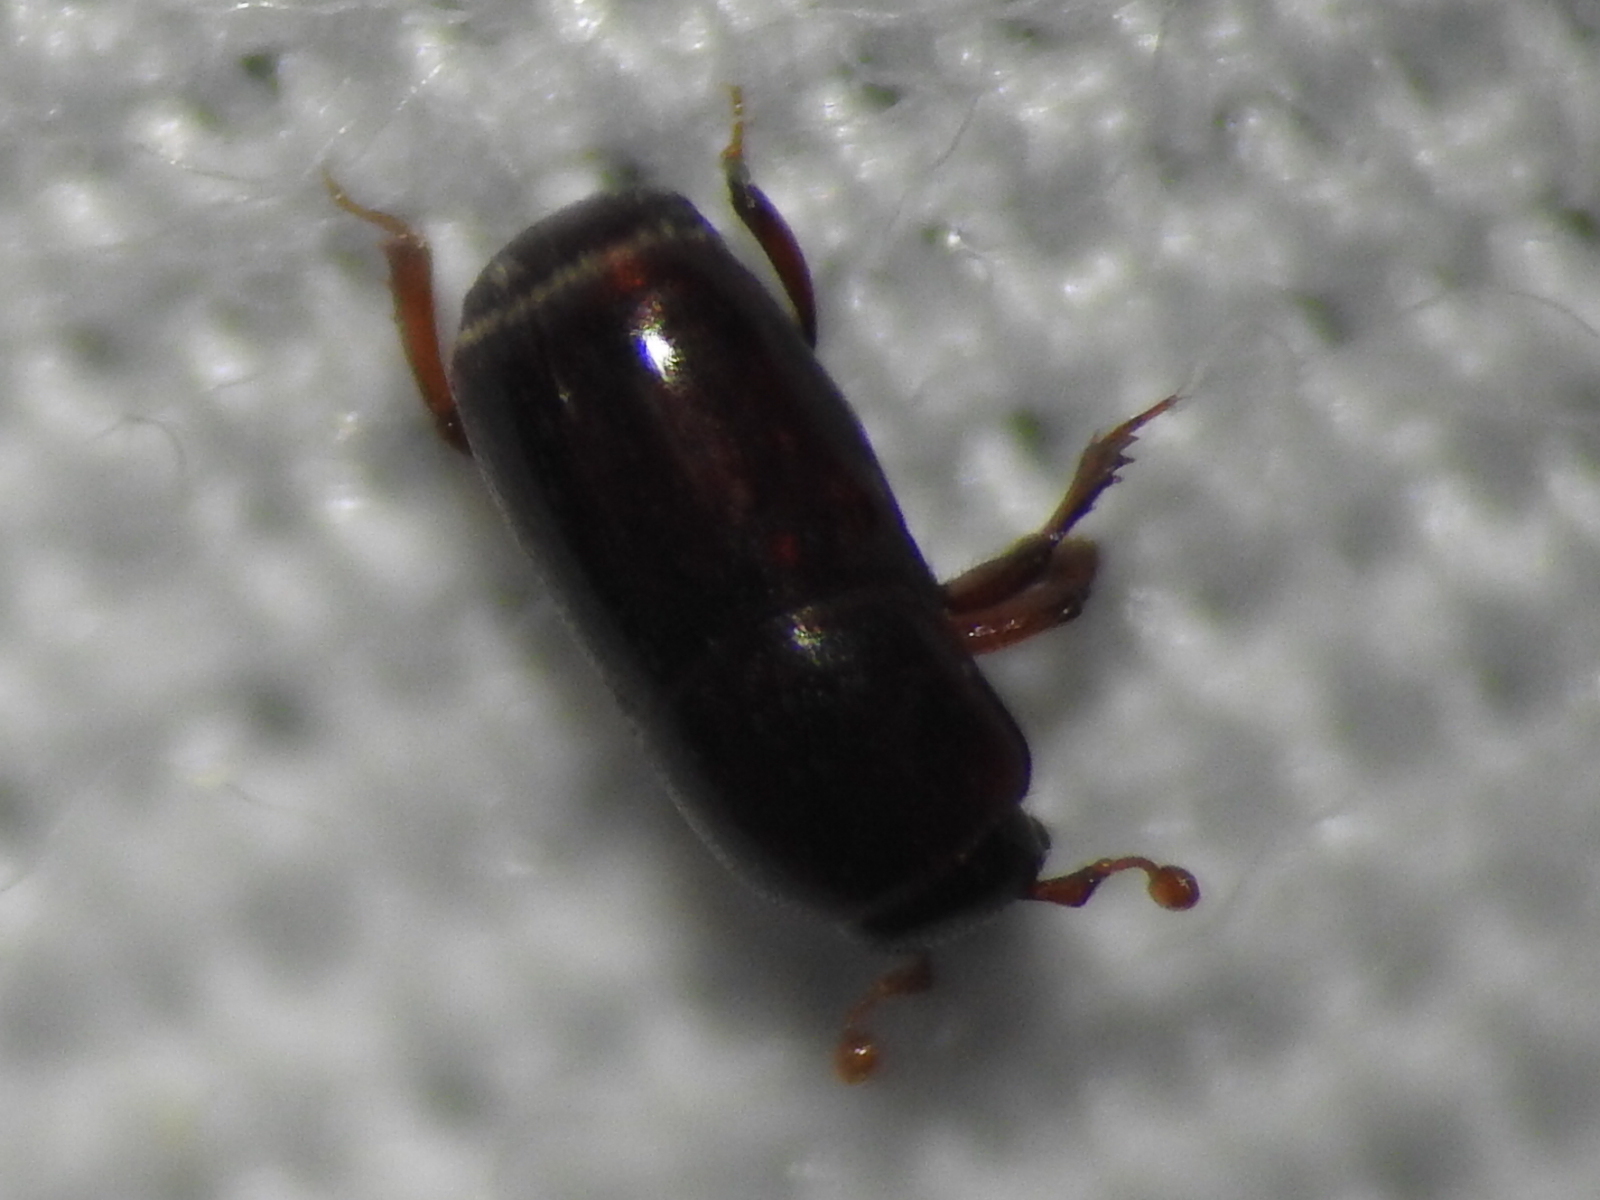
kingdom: Animalia
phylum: Arthropoda
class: Insecta
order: Coleoptera
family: Histeridae
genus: Neoteretrius
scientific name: Neoteretrius orbus
